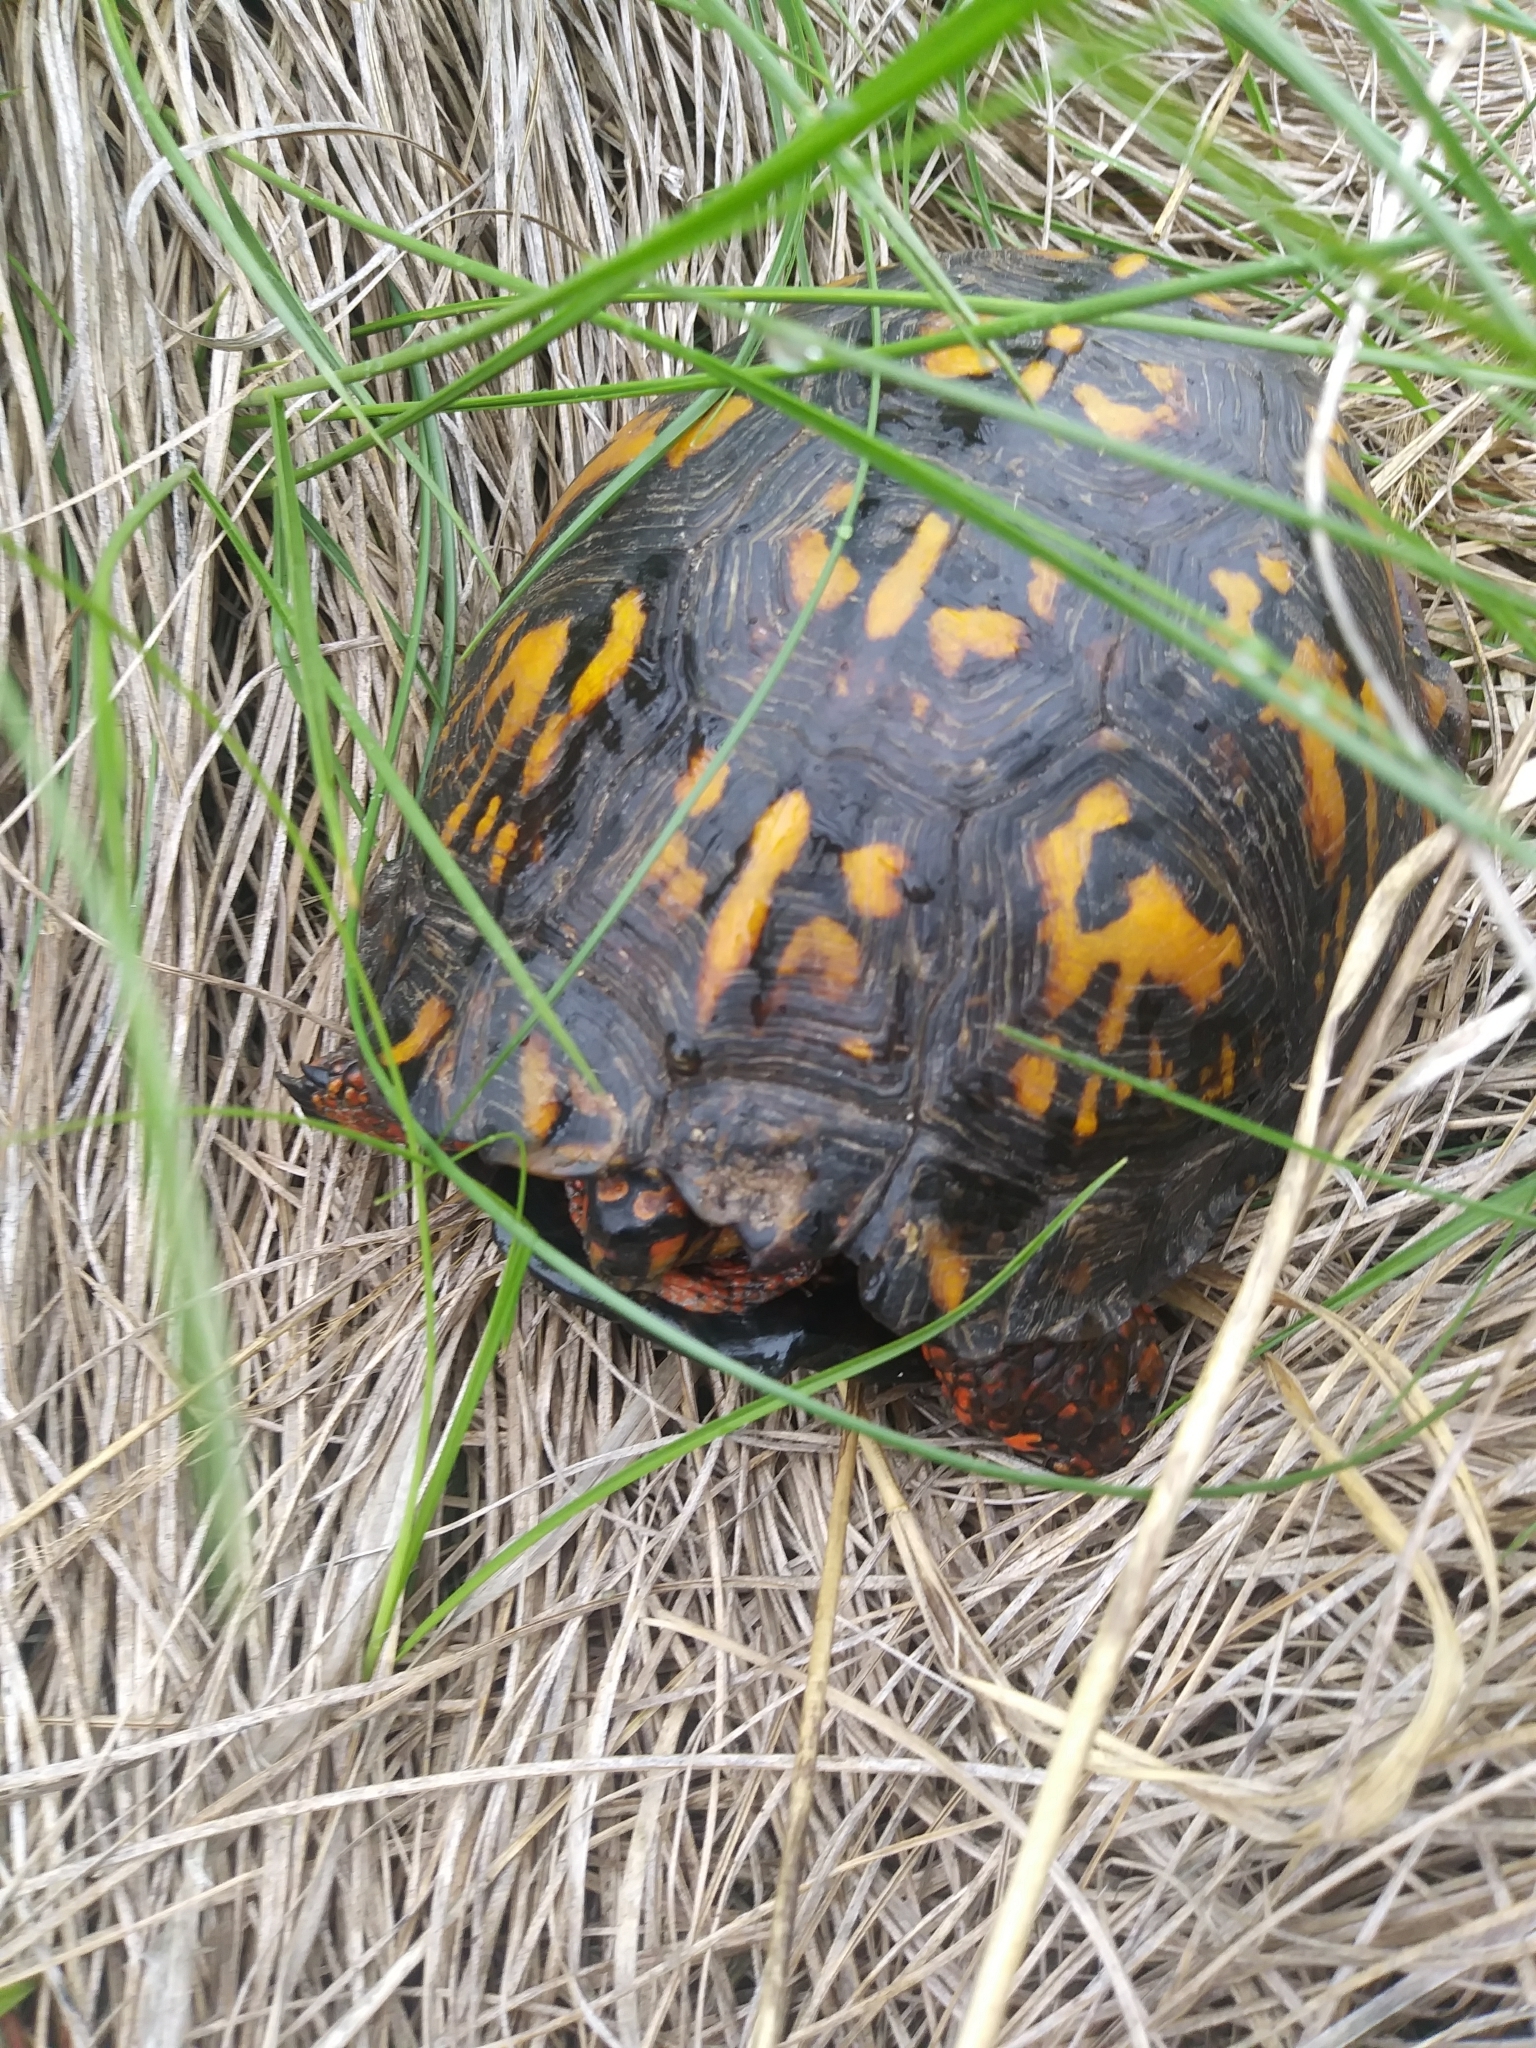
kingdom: Animalia
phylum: Chordata
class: Testudines
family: Emydidae
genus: Terrapene
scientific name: Terrapene carolina
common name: Common box turtle
